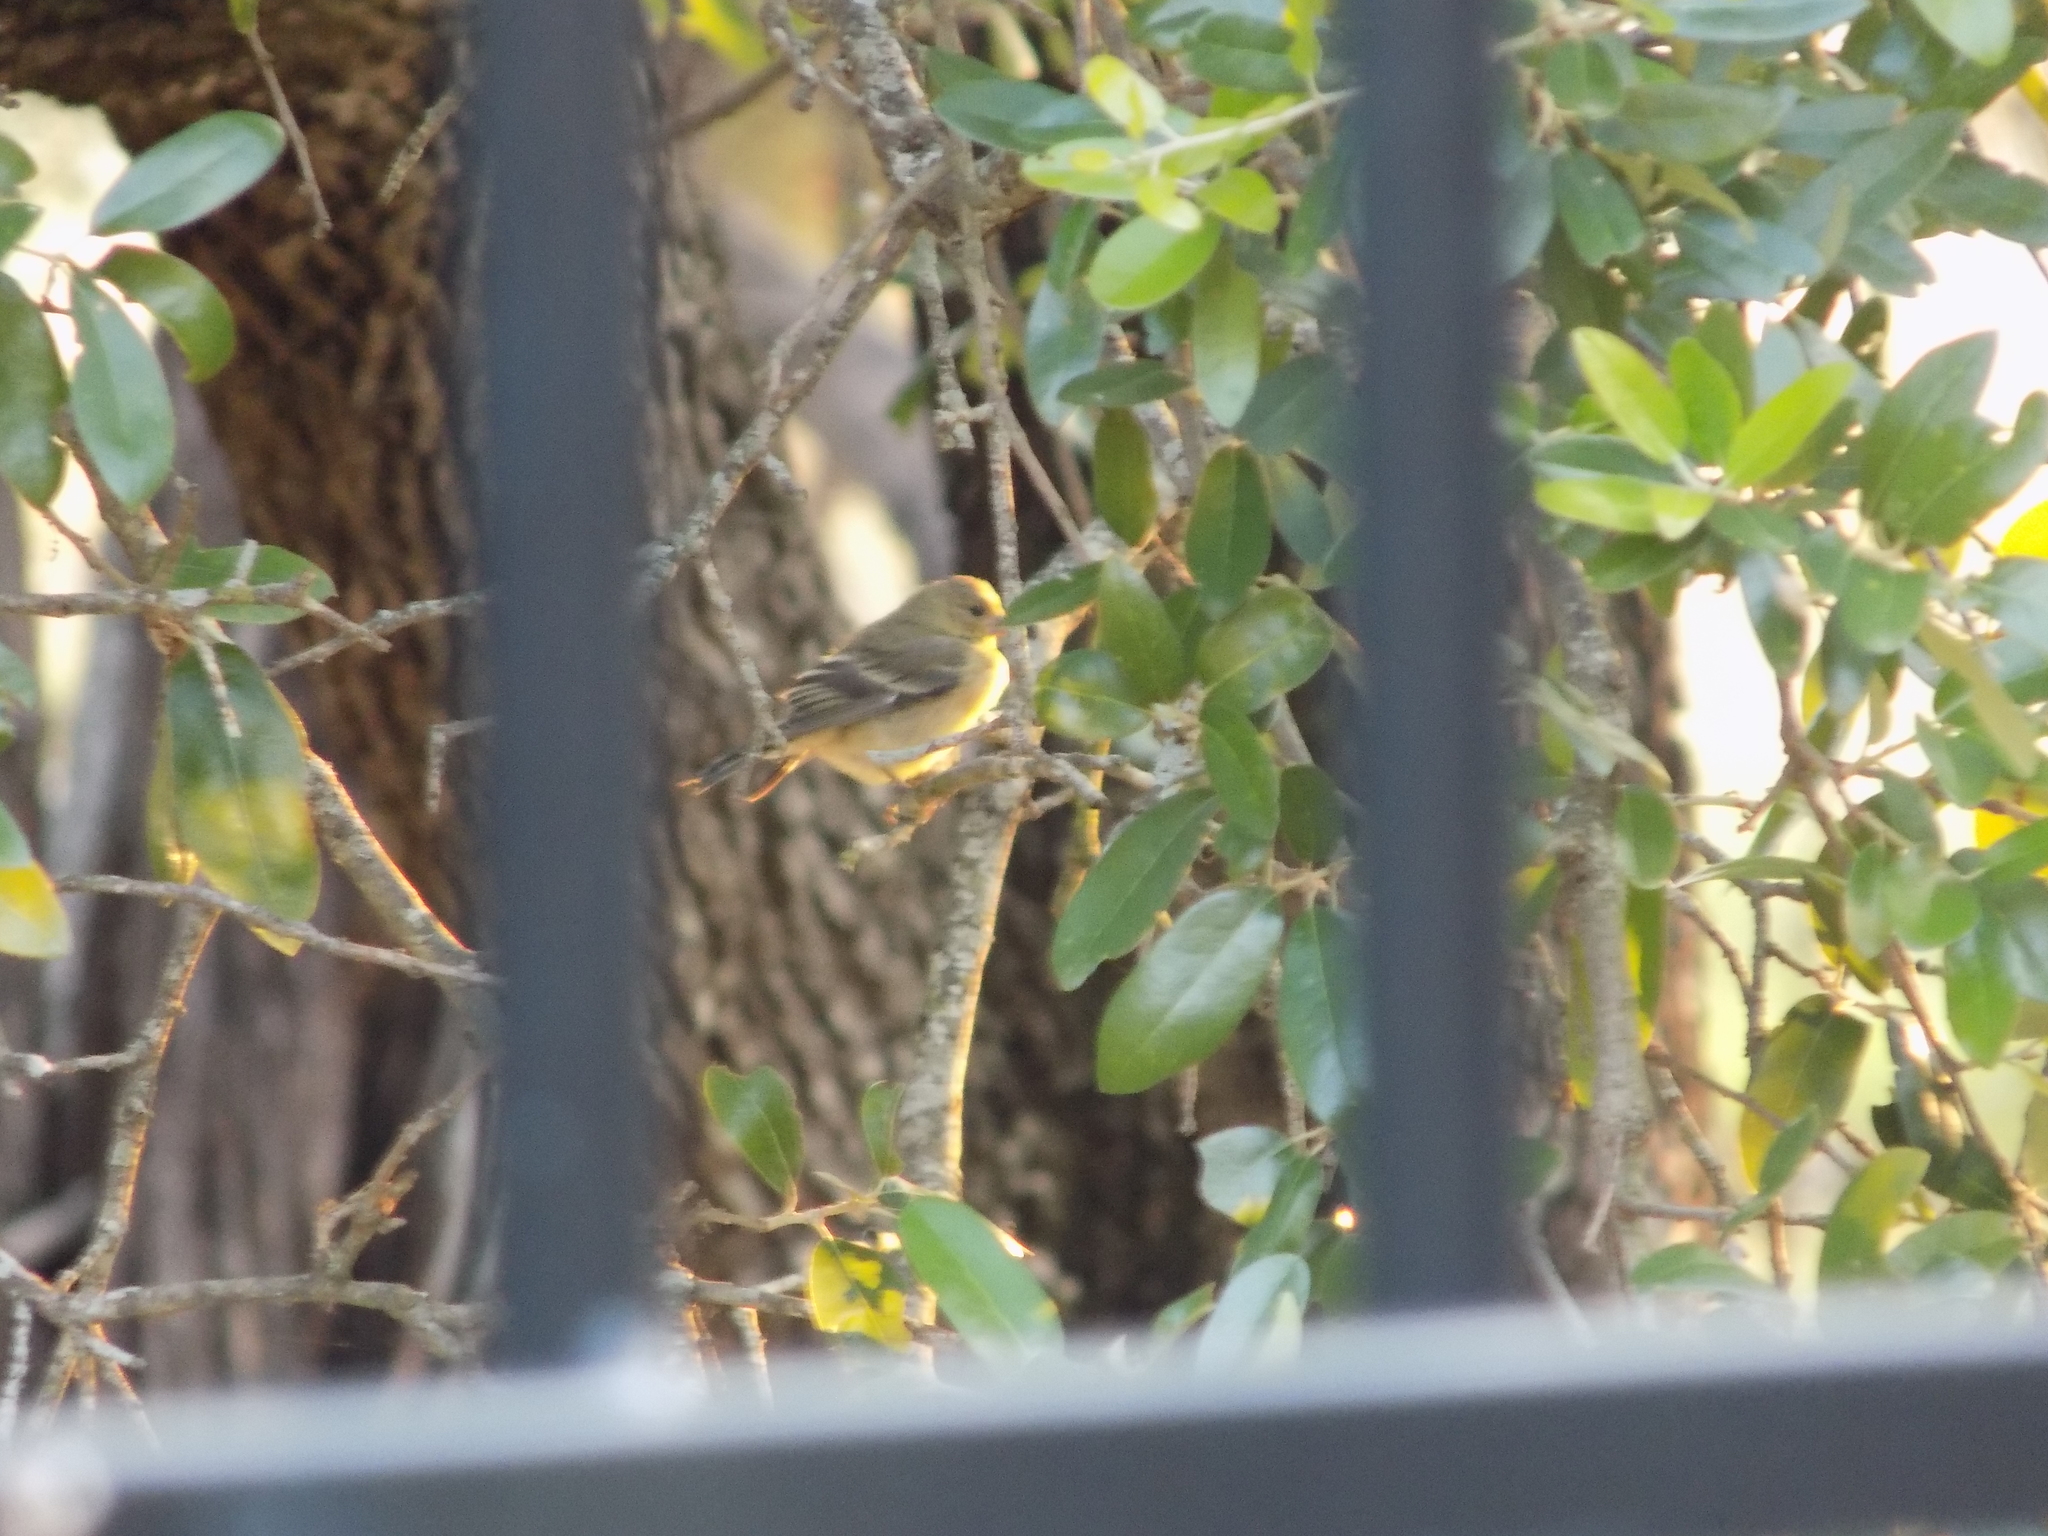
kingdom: Animalia
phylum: Chordata
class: Aves
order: Passeriformes
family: Fringillidae
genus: Spinus
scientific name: Spinus psaltria
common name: Lesser goldfinch
